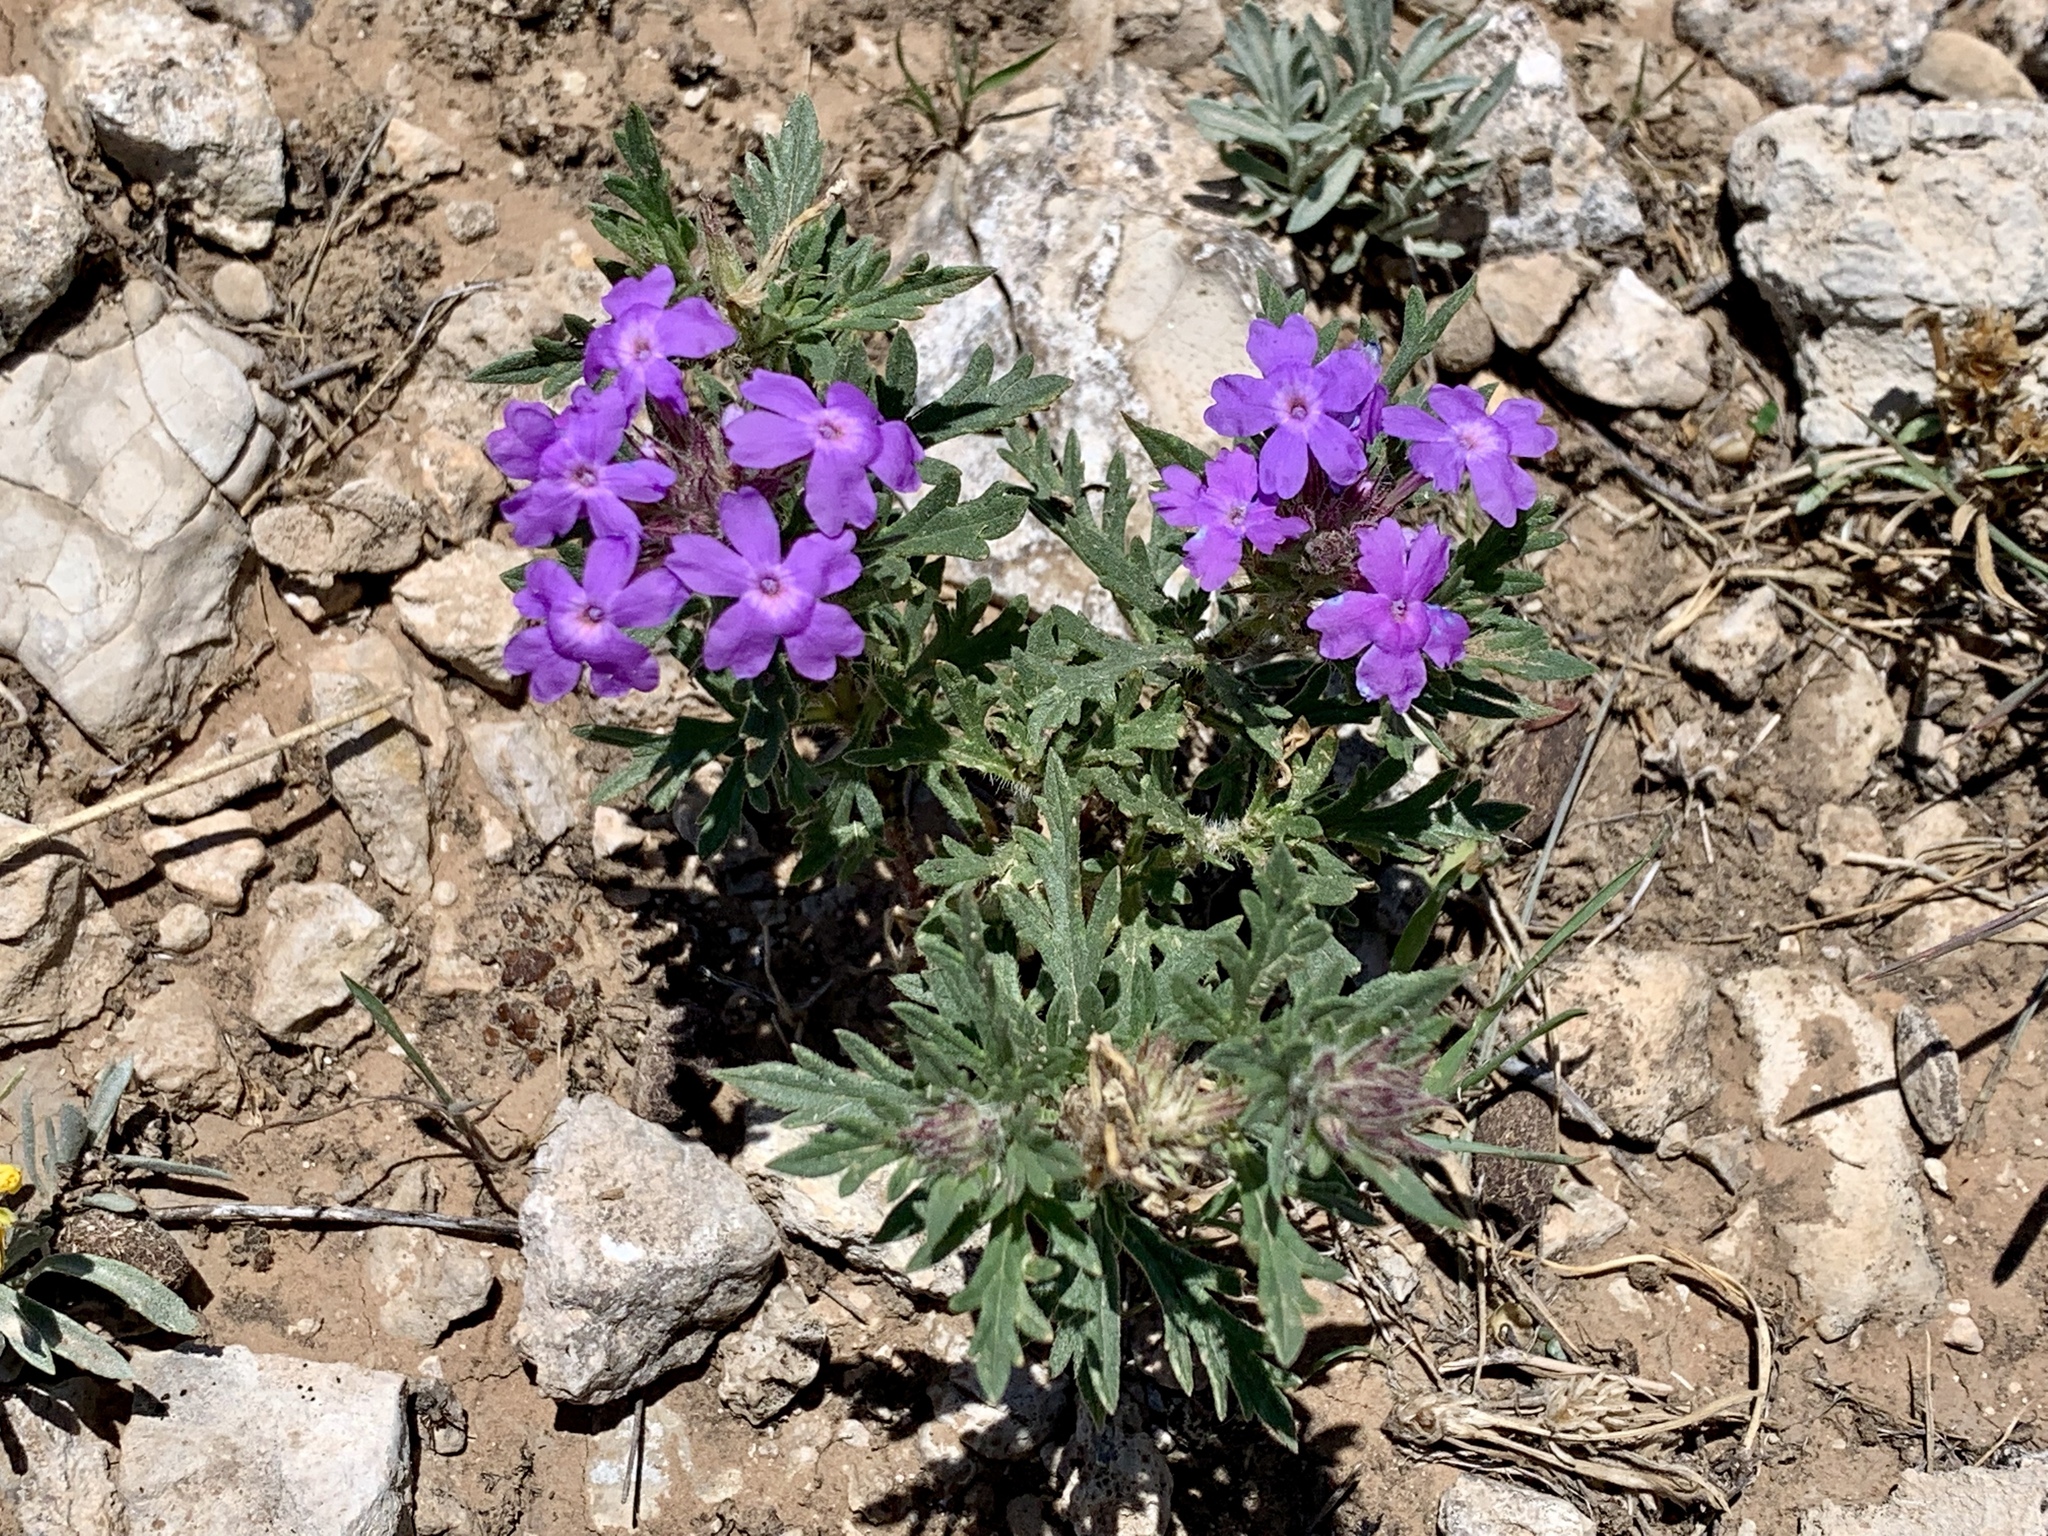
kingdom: Plantae
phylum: Tracheophyta
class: Magnoliopsida
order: Lamiales
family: Verbenaceae
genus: Verbena
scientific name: Verbena bipinnatifida
